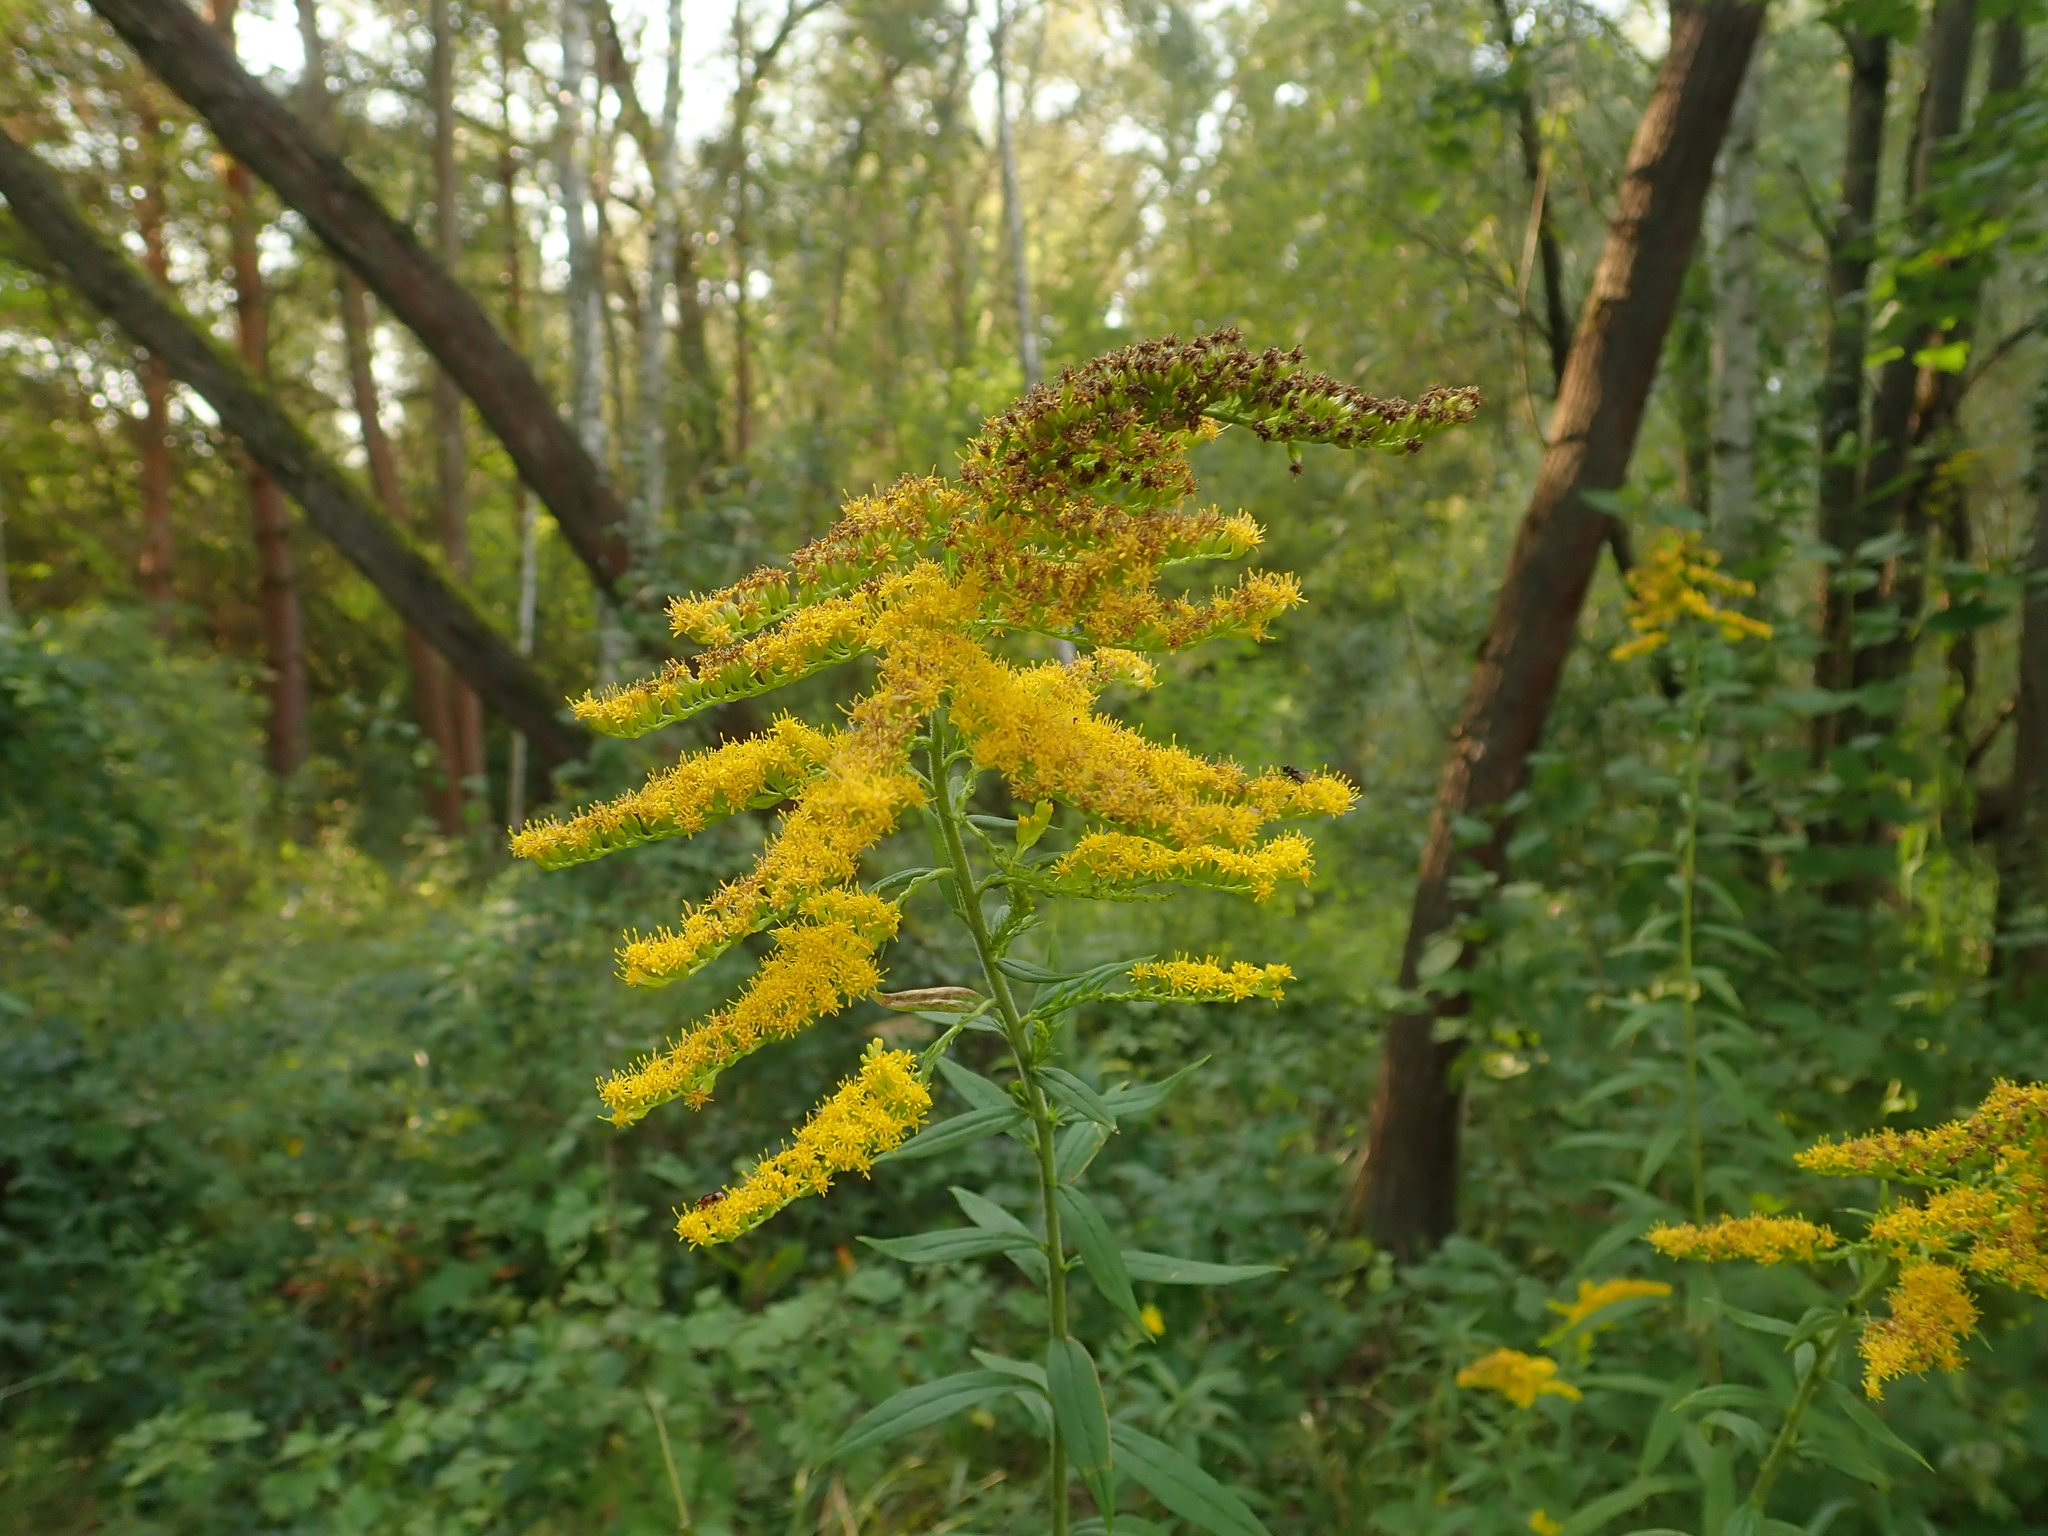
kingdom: Plantae
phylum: Tracheophyta
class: Magnoliopsida
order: Asterales
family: Asteraceae
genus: Solidago
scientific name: Solidago canadensis
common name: Canada goldenrod
